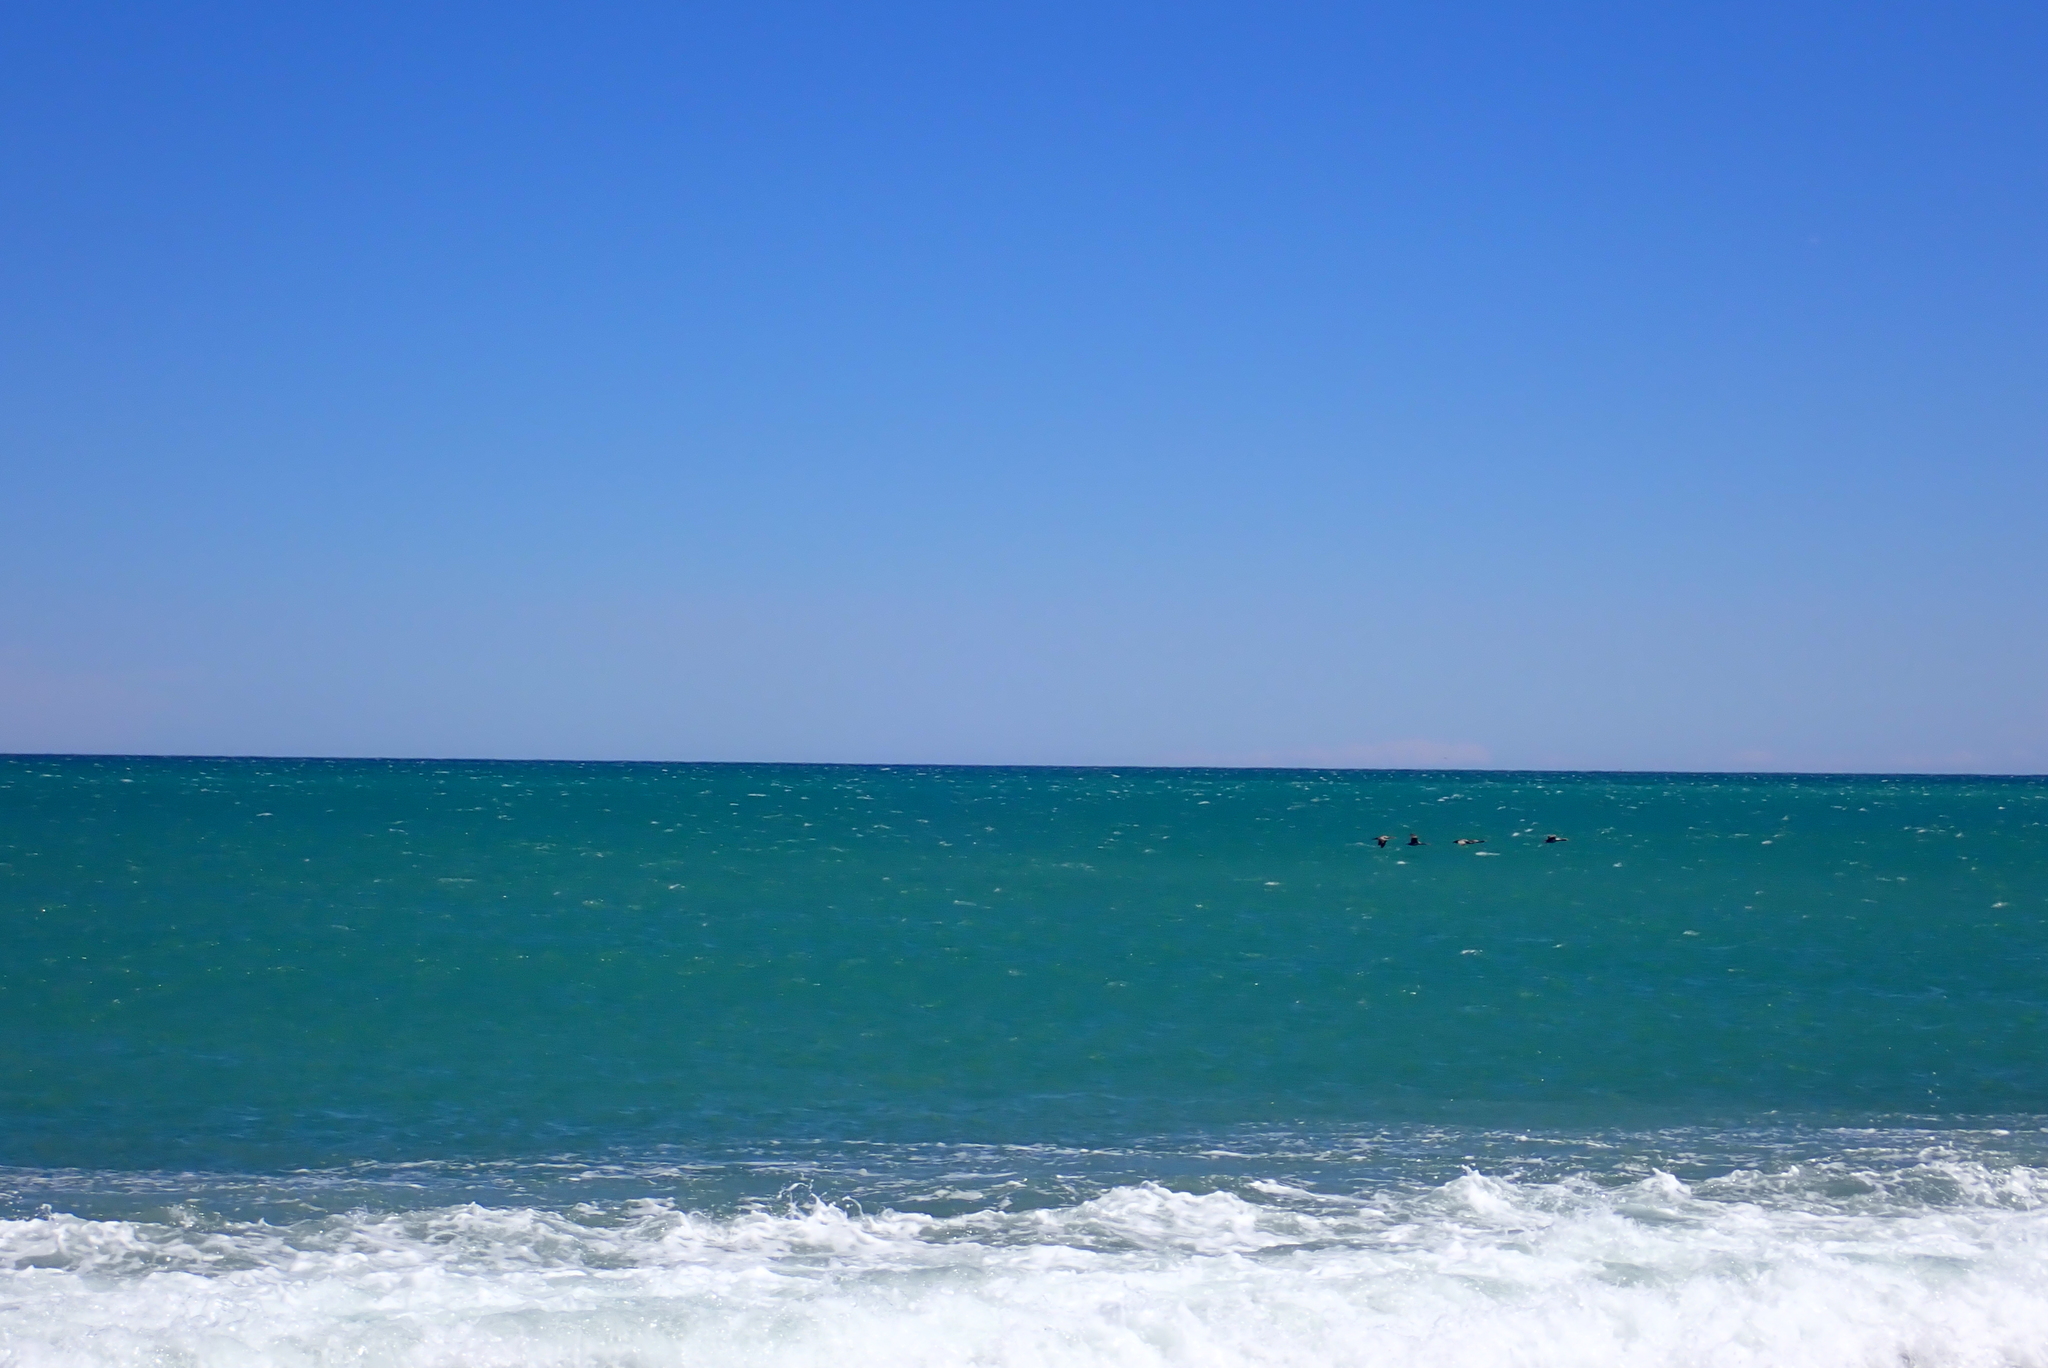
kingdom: Animalia
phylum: Chordata
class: Aves
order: Suliformes
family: Phalacrocoracidae
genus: Phalacrocorax
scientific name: Phalacrocorax punctatus
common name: Spotted shag
